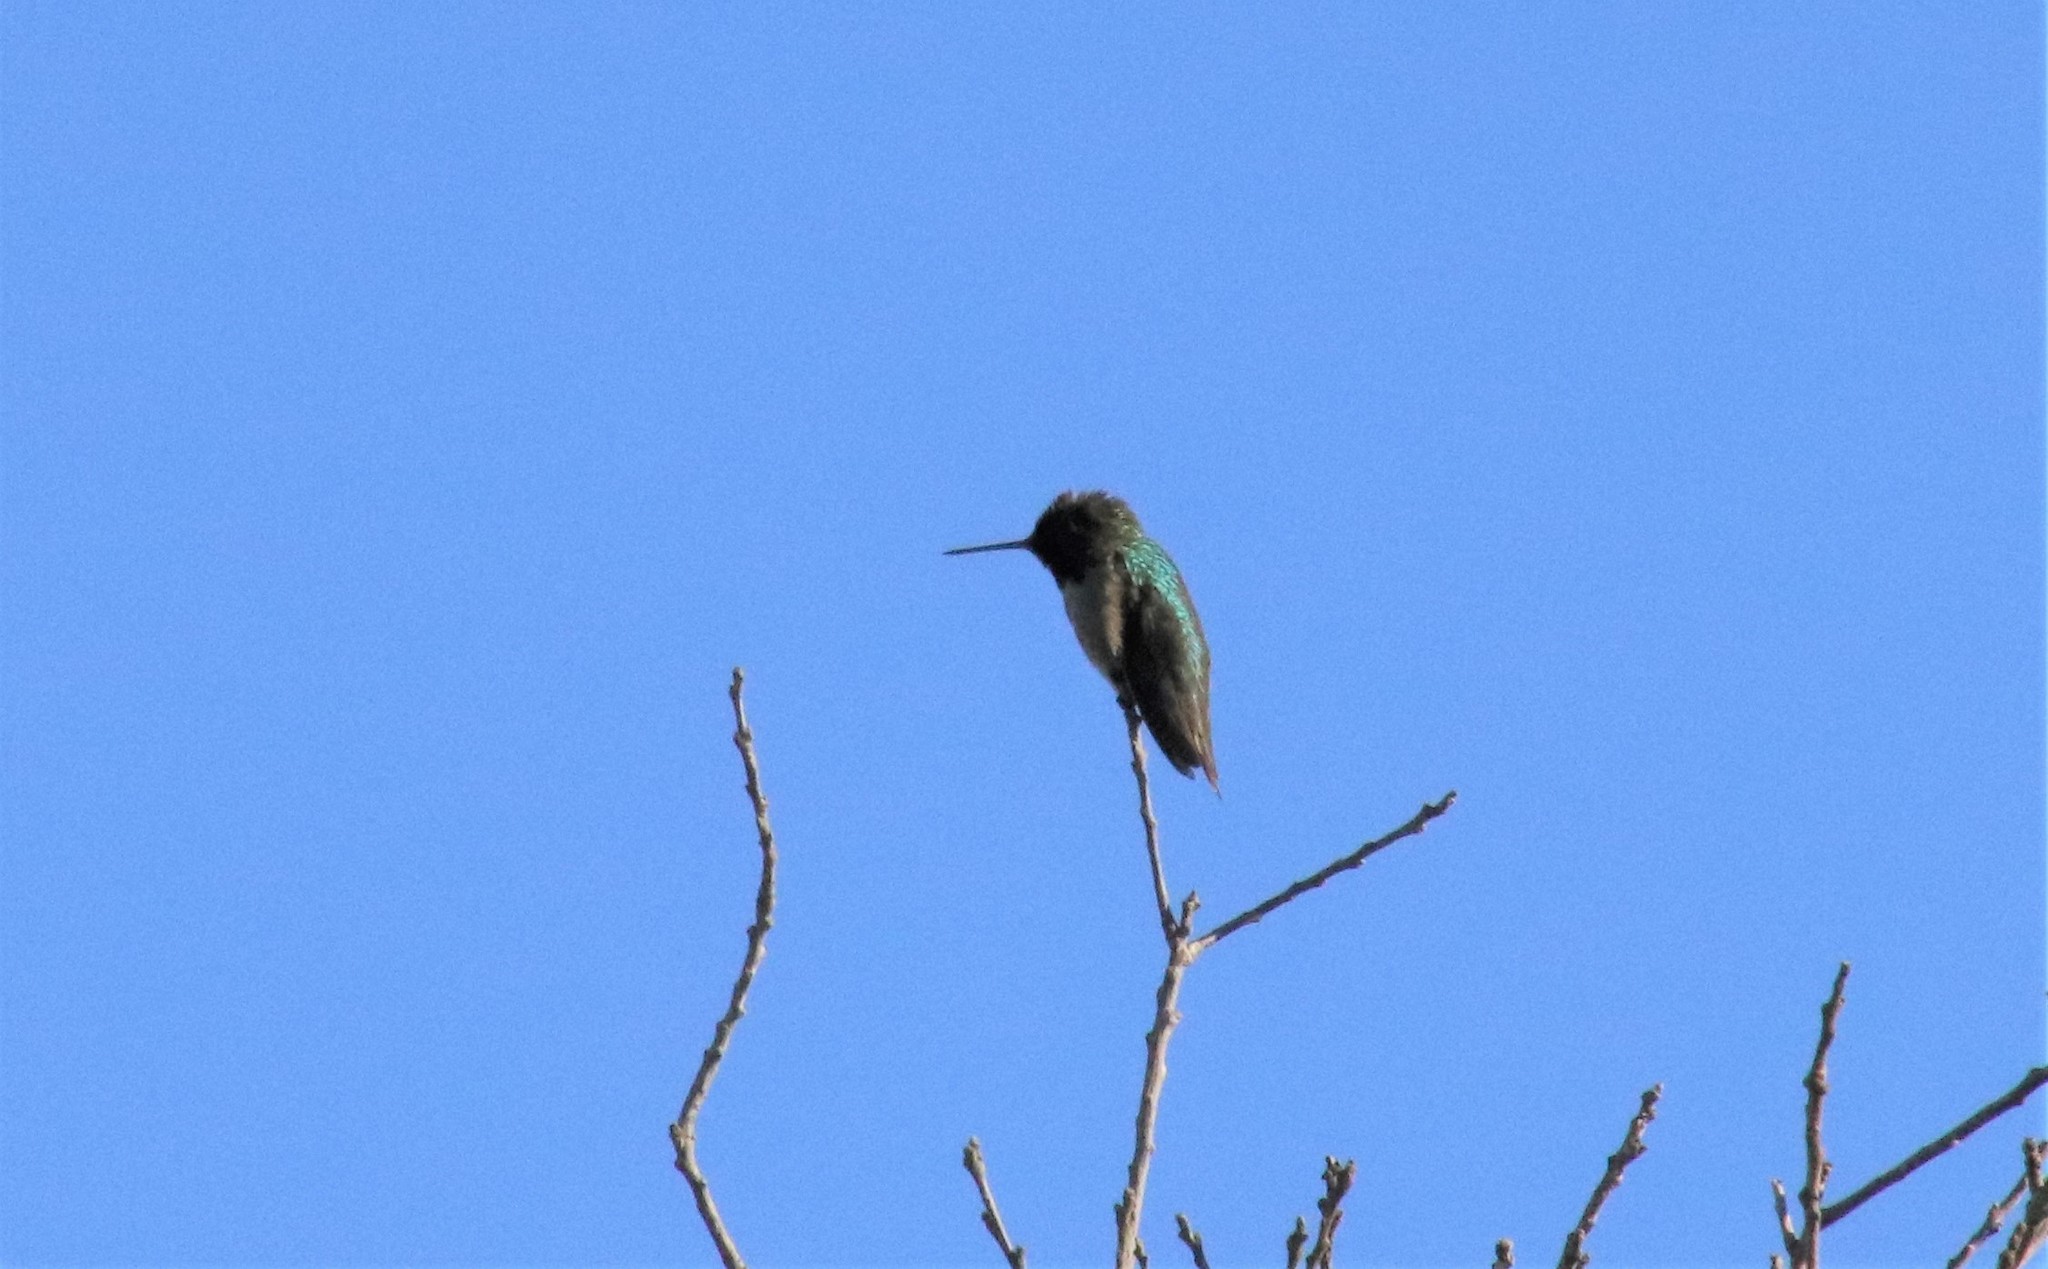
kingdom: Animalia
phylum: Chordata
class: Aves
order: Apodiformes
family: Trochilidae
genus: Calypte
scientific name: Calypte anna
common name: Anna's hummingbird
